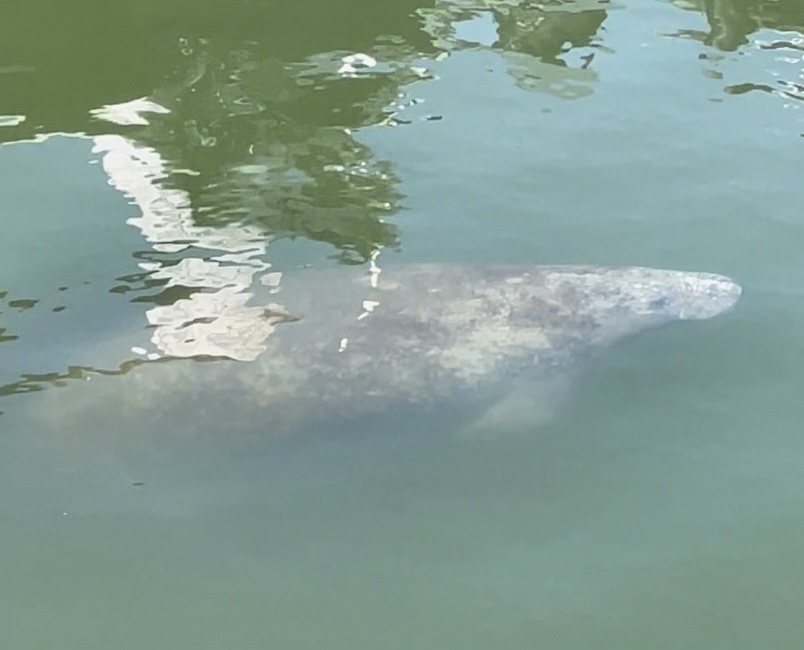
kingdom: Animalia
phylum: Chordata
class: Mammalia
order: Sirenia
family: Trichechidae
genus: Trichechus
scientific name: Trichechus manatus
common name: West indian manatee
